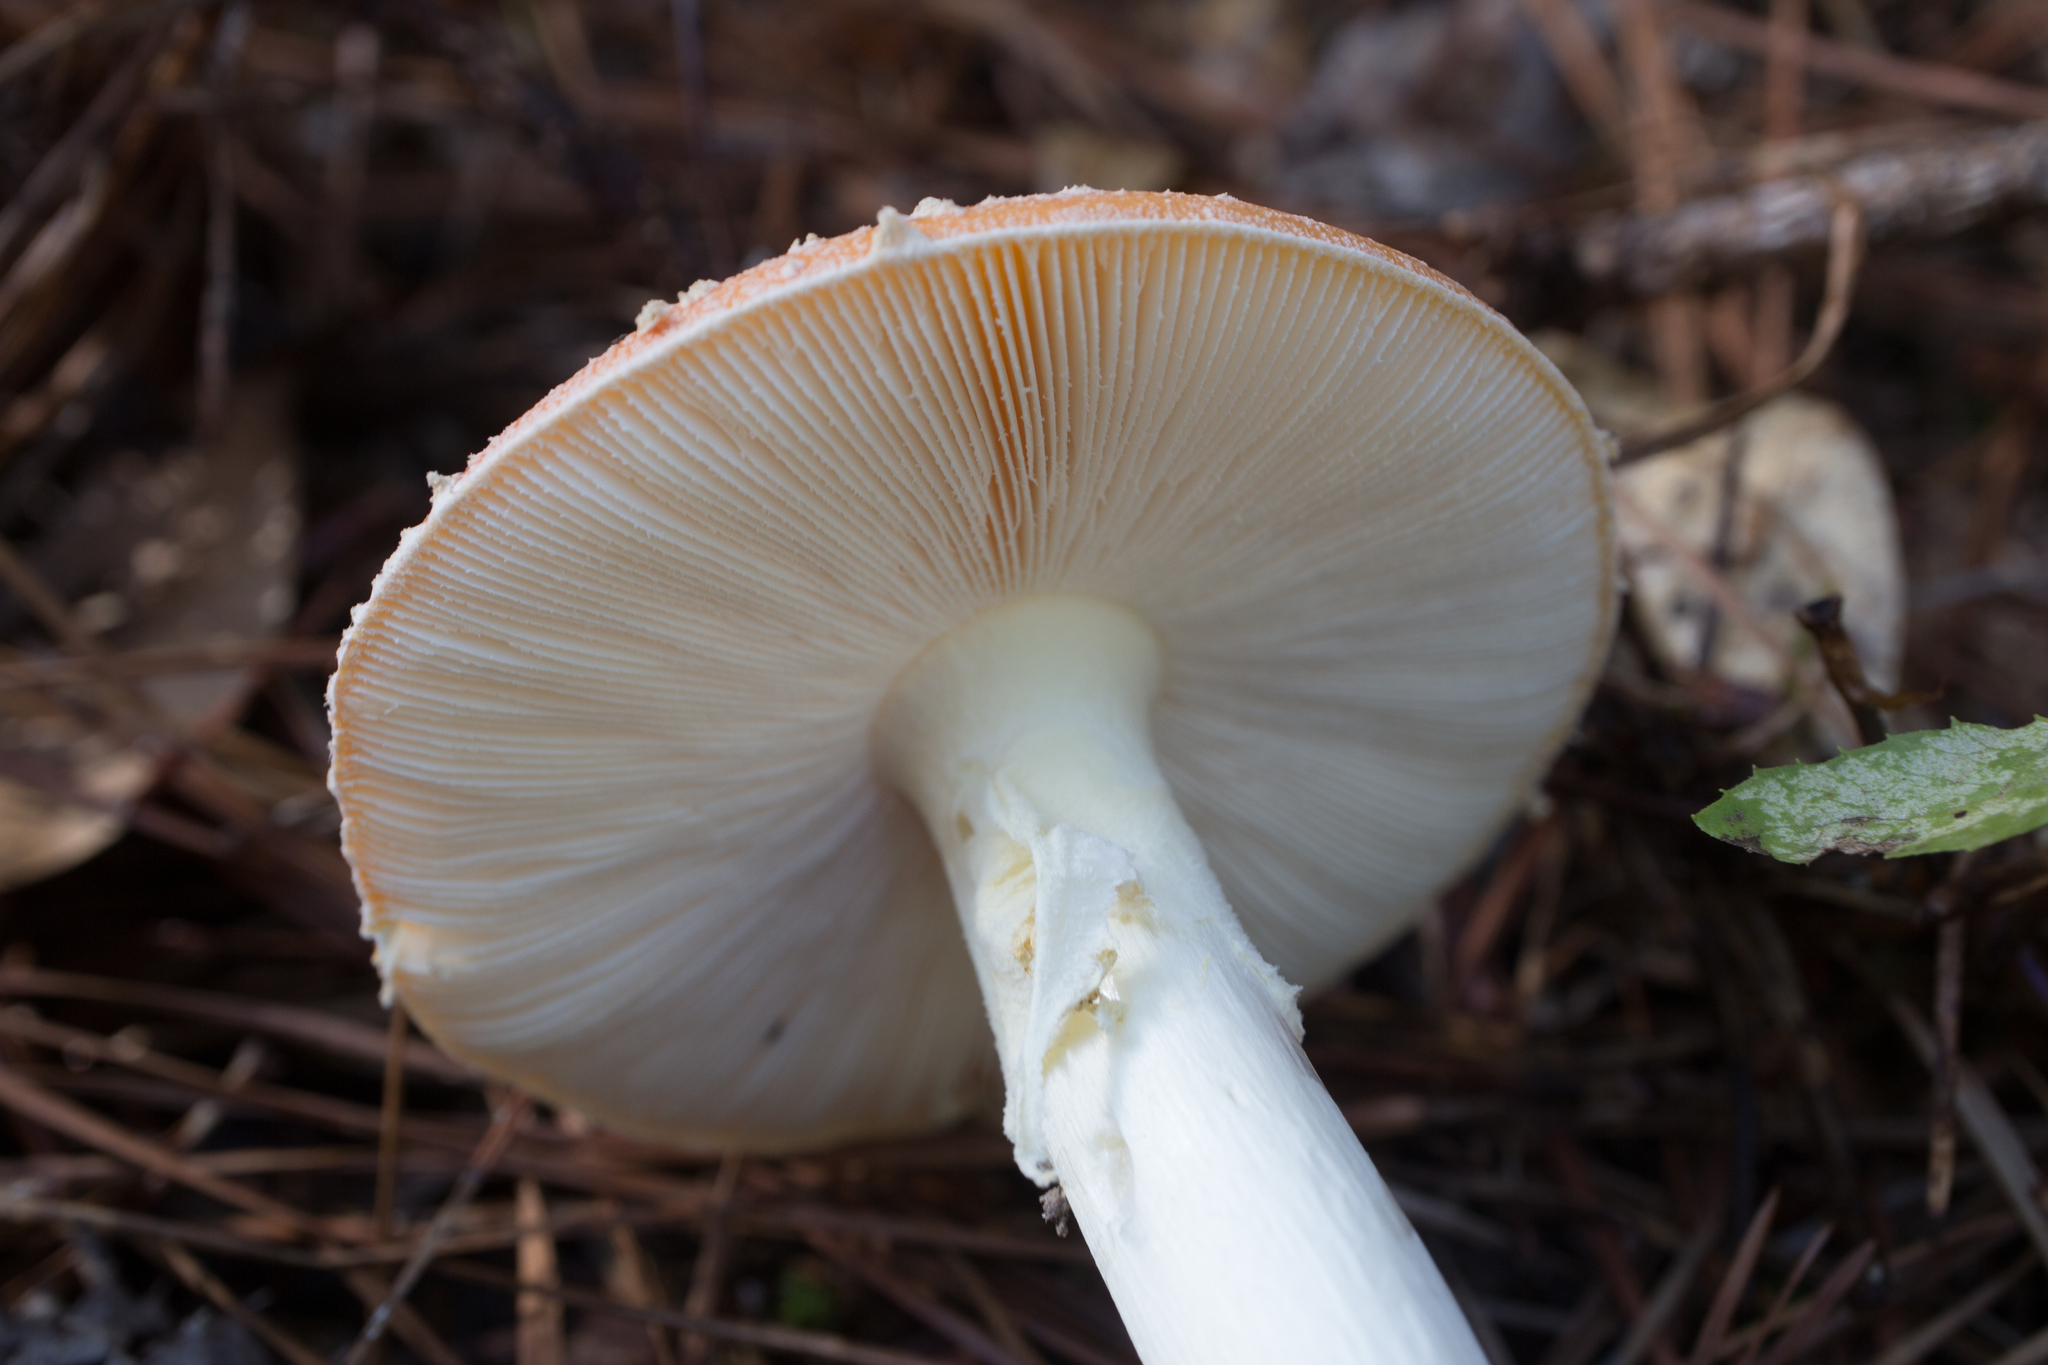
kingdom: Fungi
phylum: Basidiomycota
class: Agaricomycetes
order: Agaricales
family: Amanitaceae
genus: Amanita
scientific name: Amanita persicina
